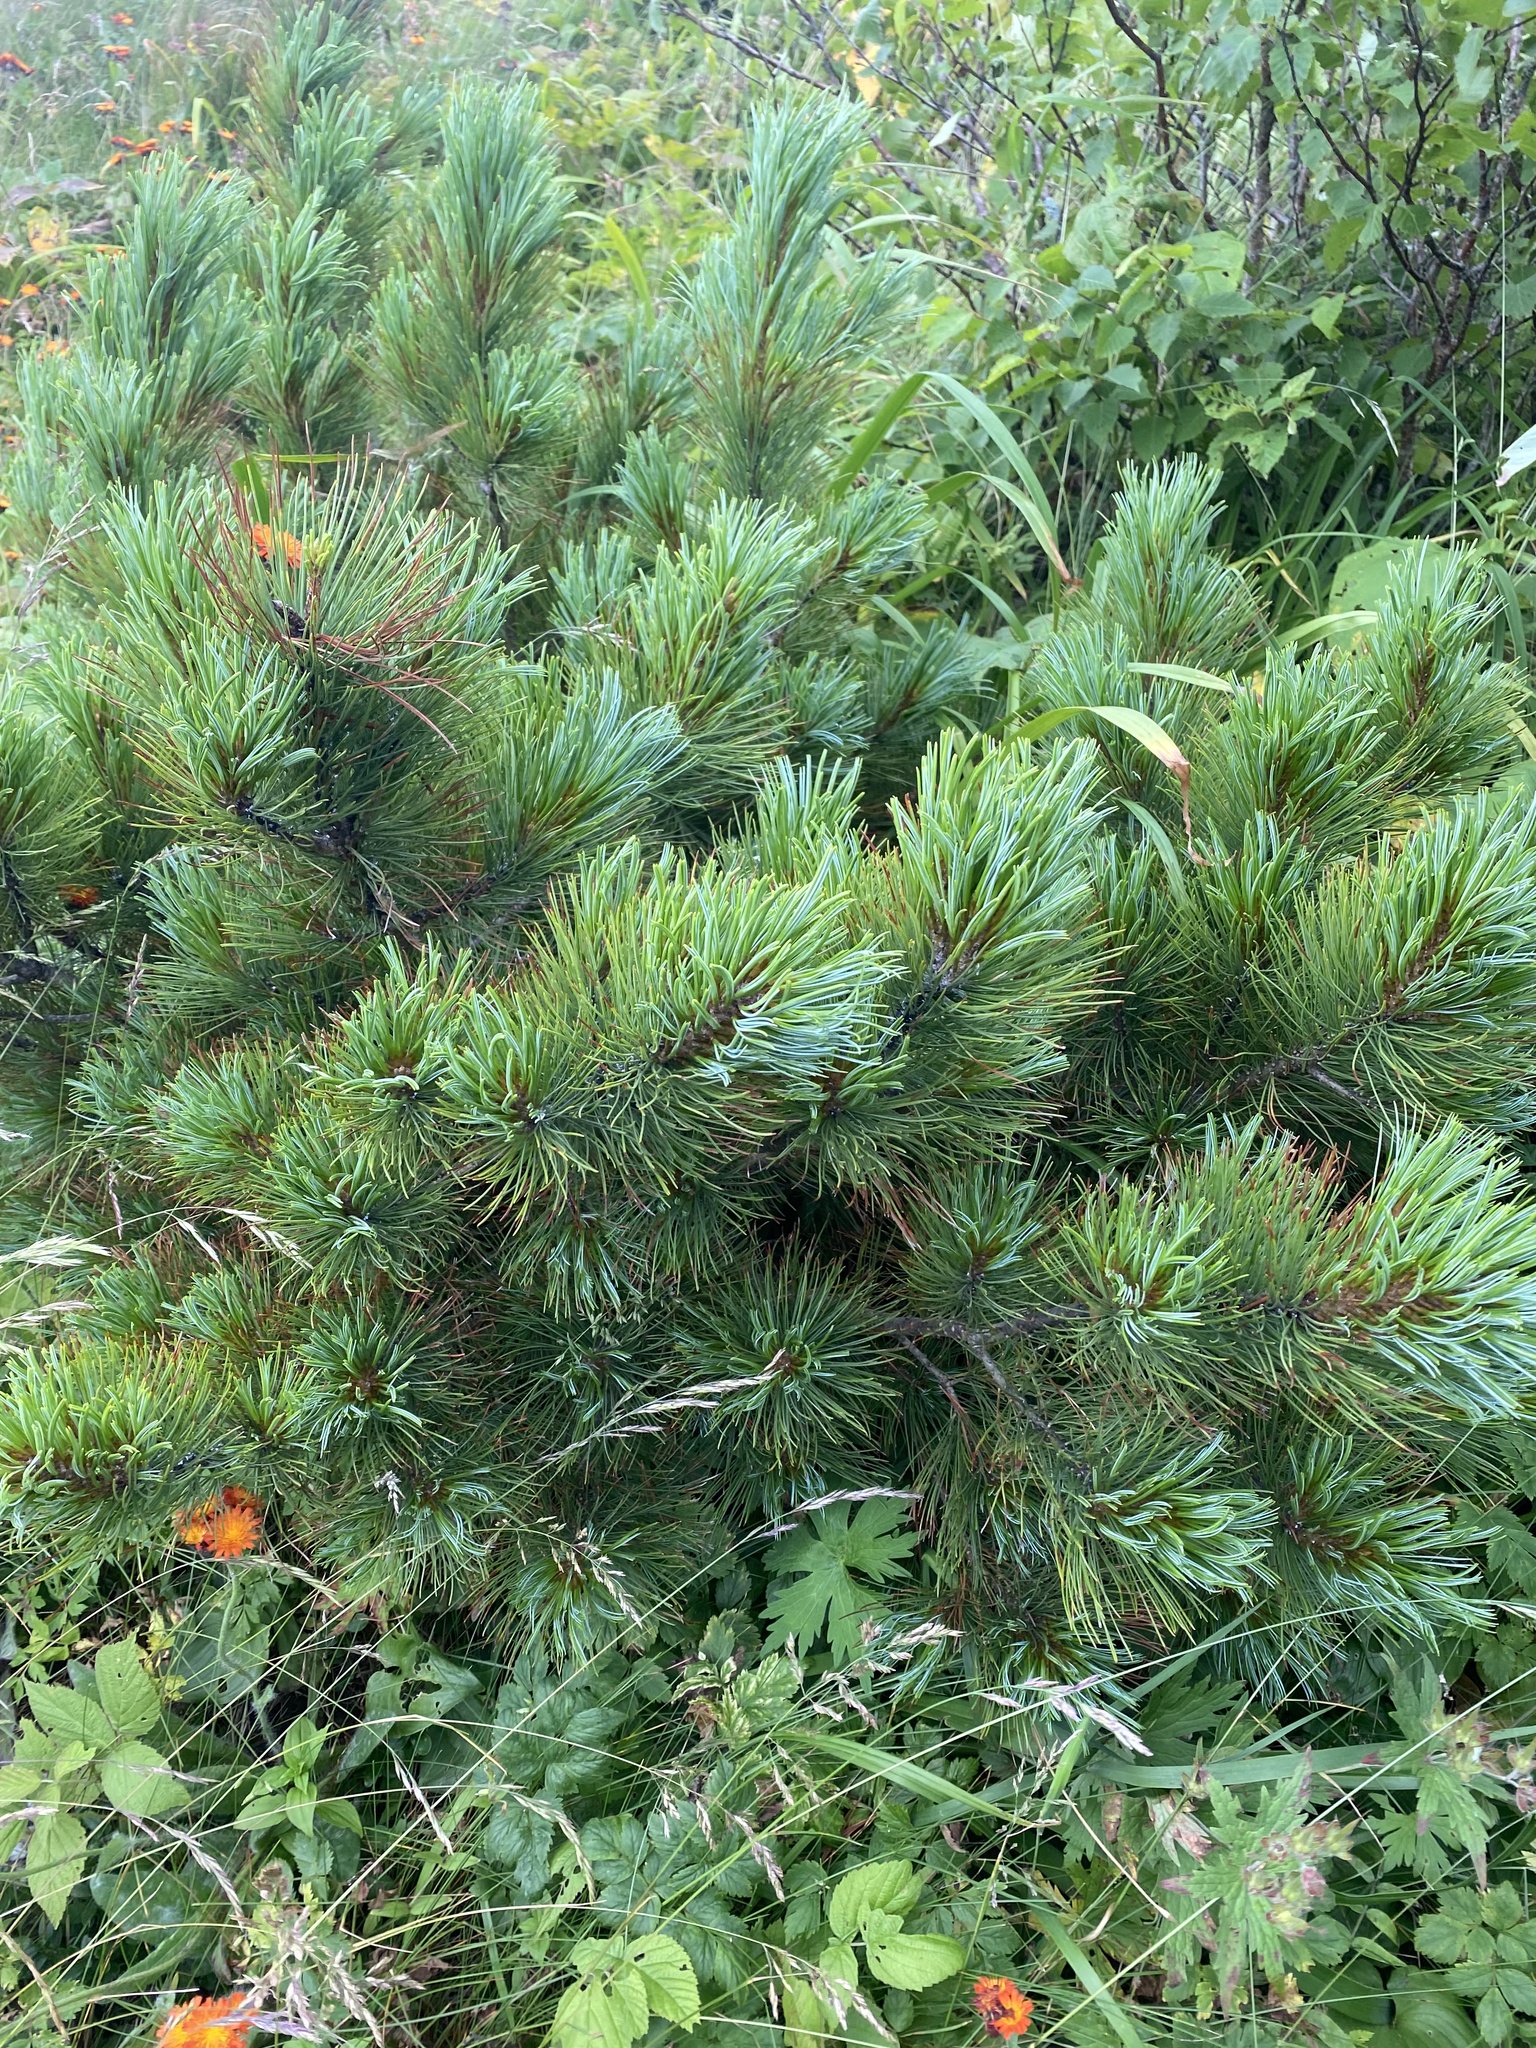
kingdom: Plantae
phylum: Tracheophyta
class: Pinopsida
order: Pinales
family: Pinaceae
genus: Pinus
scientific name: Pinus pumila
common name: Dwarf siberian pine
